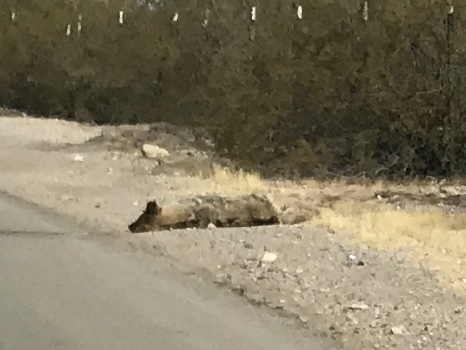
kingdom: Animalia
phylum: Chordata
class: Mammalia
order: Carnivora
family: Canidae
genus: Canis
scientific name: Canis latrans
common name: Coyote
